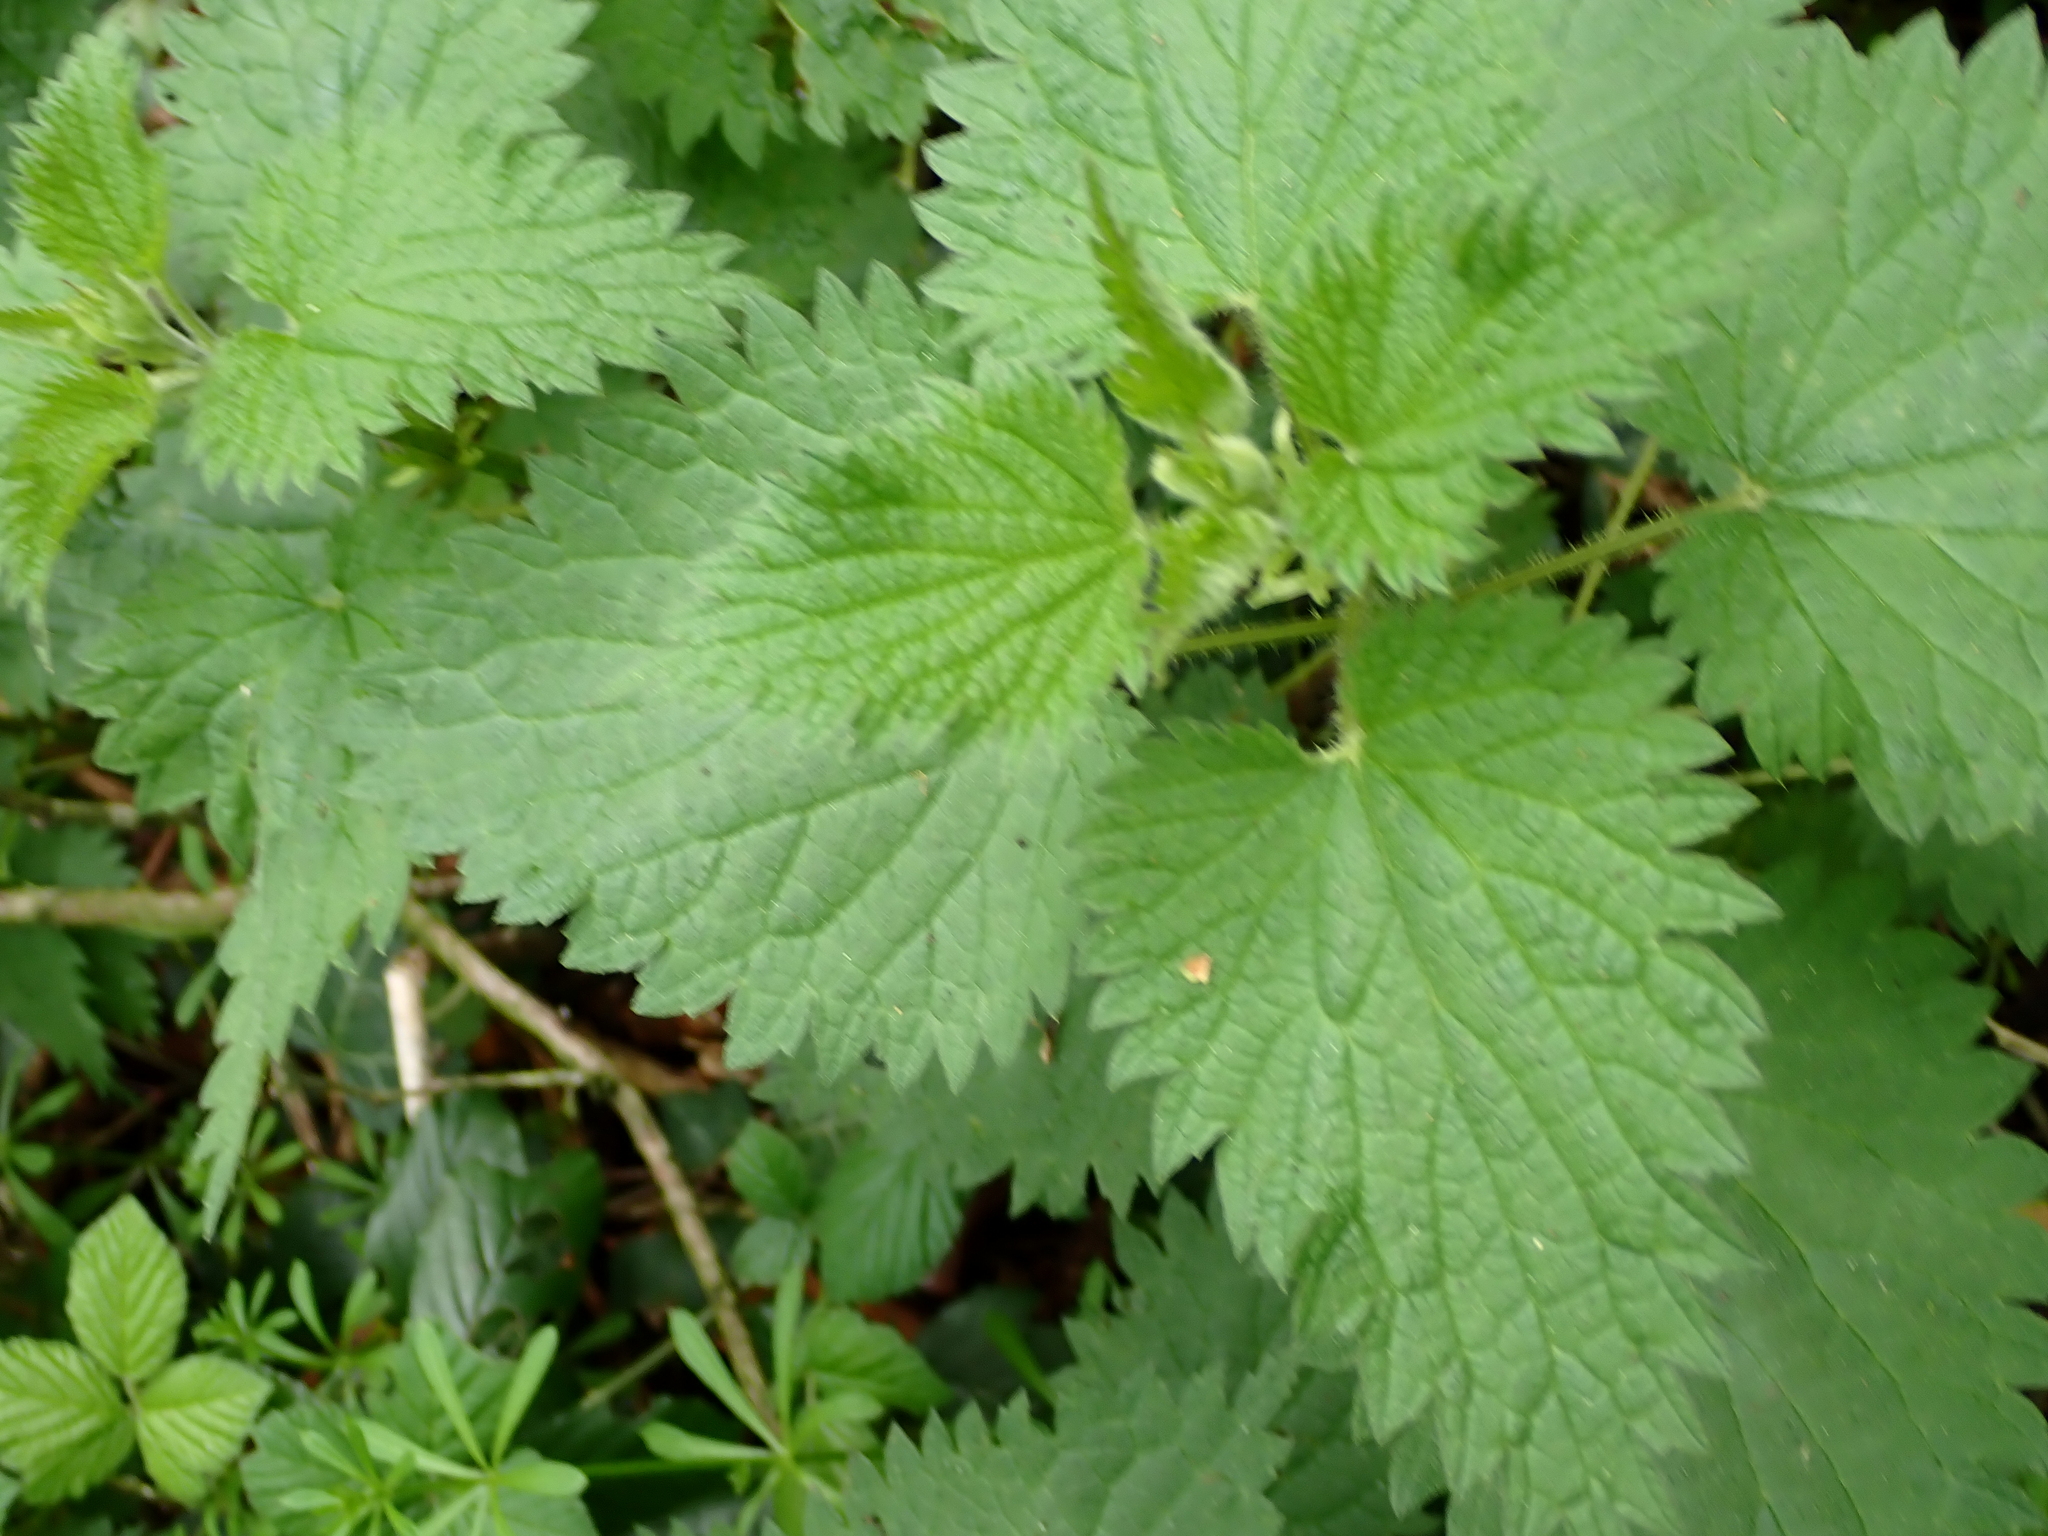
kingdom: Plantae
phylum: Tracheophyta
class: Magnoliopsida
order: Rosales
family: Urticaceae
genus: Urtica
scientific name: Urtica dioica
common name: Common nettle
